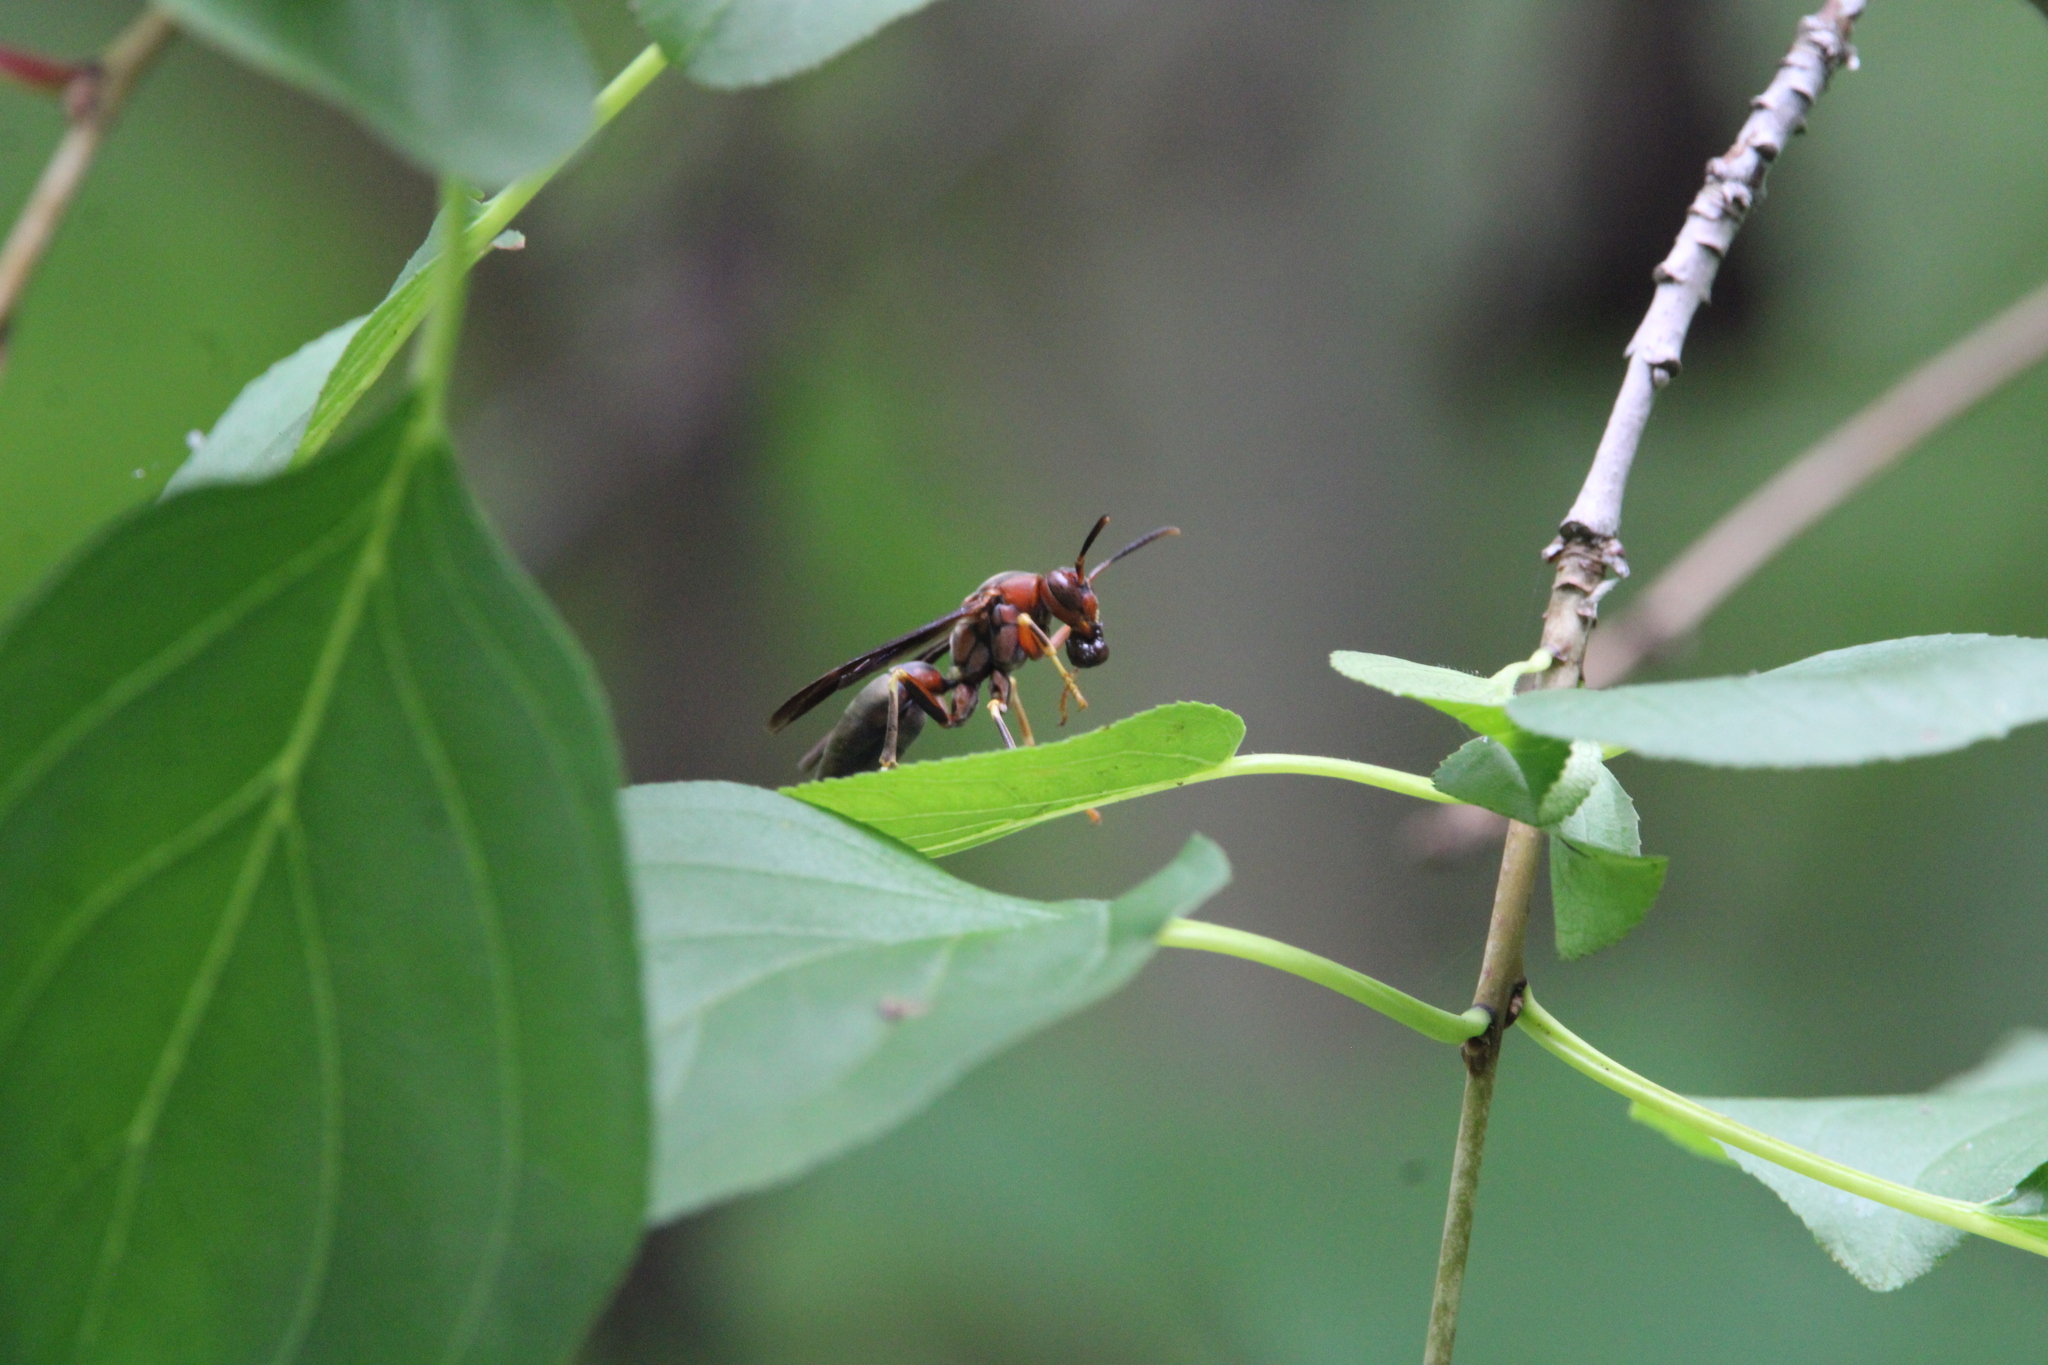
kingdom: Animalia
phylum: Arthropoda
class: Insecta
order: Hymenoptera
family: Eumenidae
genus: Polistes
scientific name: Polistes metricus
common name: Metric paper wasp
